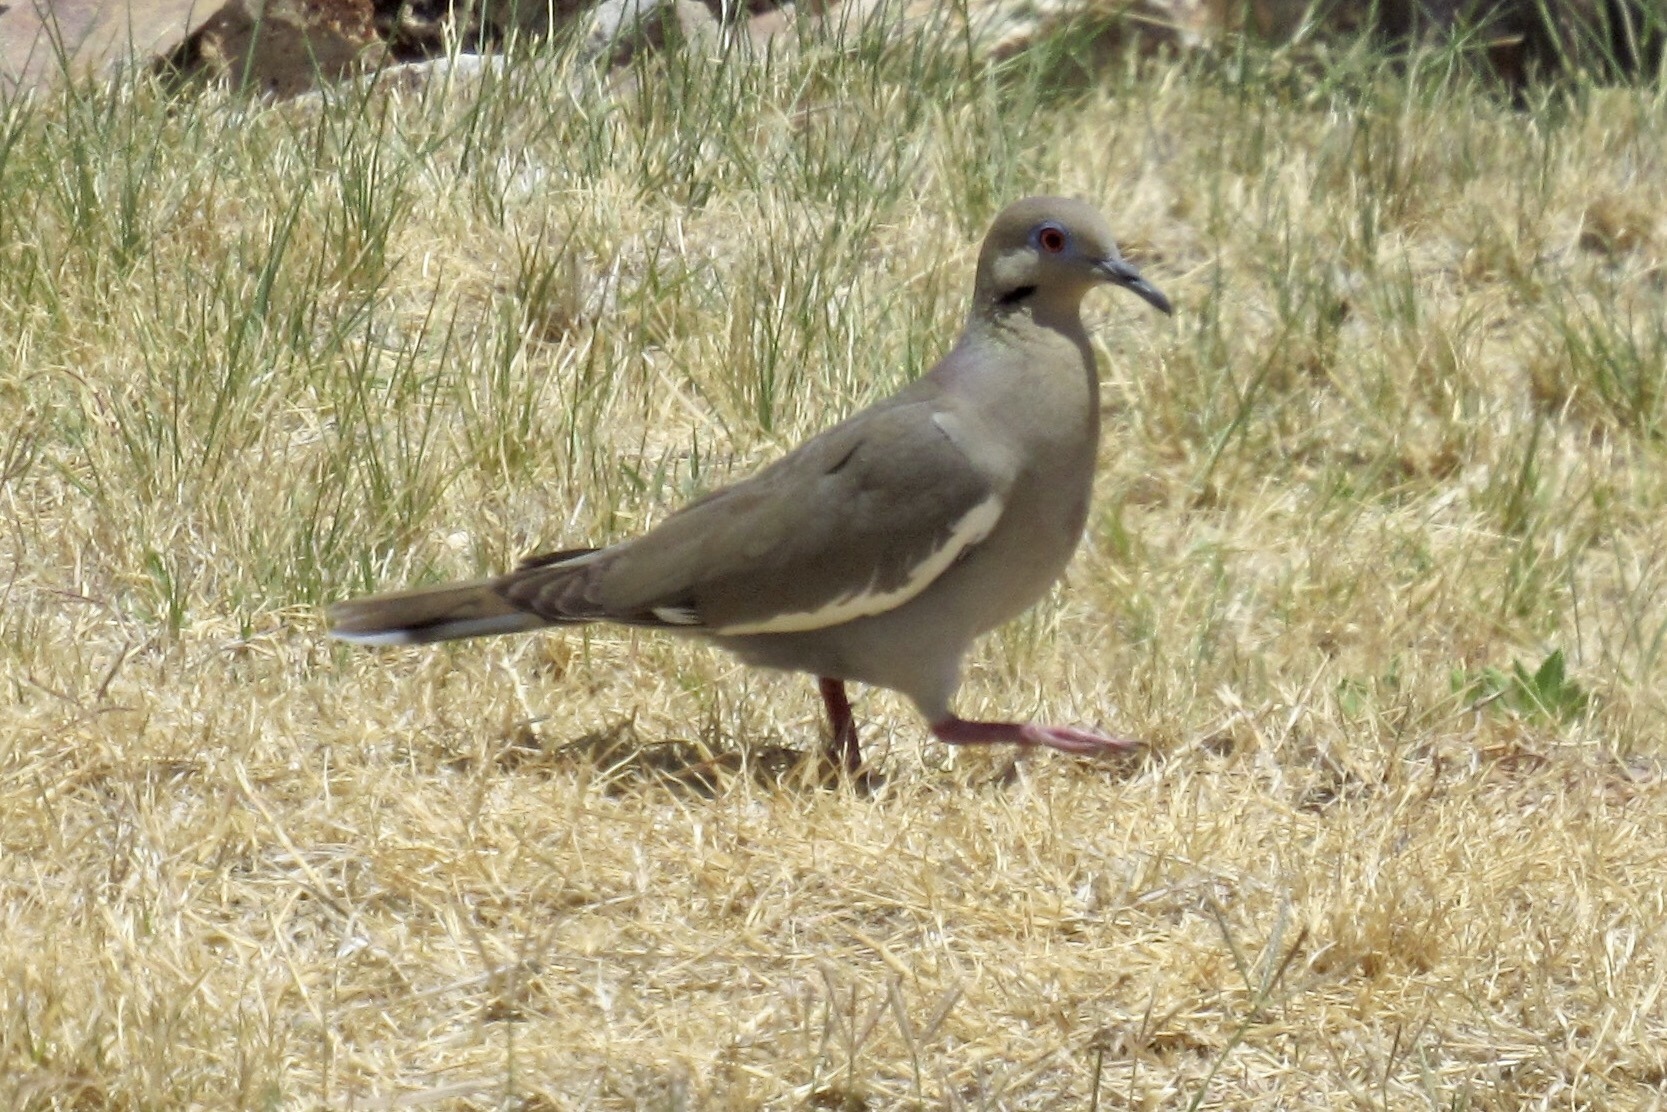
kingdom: Animalia
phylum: Chordata
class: Aves
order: Columbiformes
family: Columbidae
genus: Zenaida
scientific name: Zenaida asiatica
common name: White-winged dove
